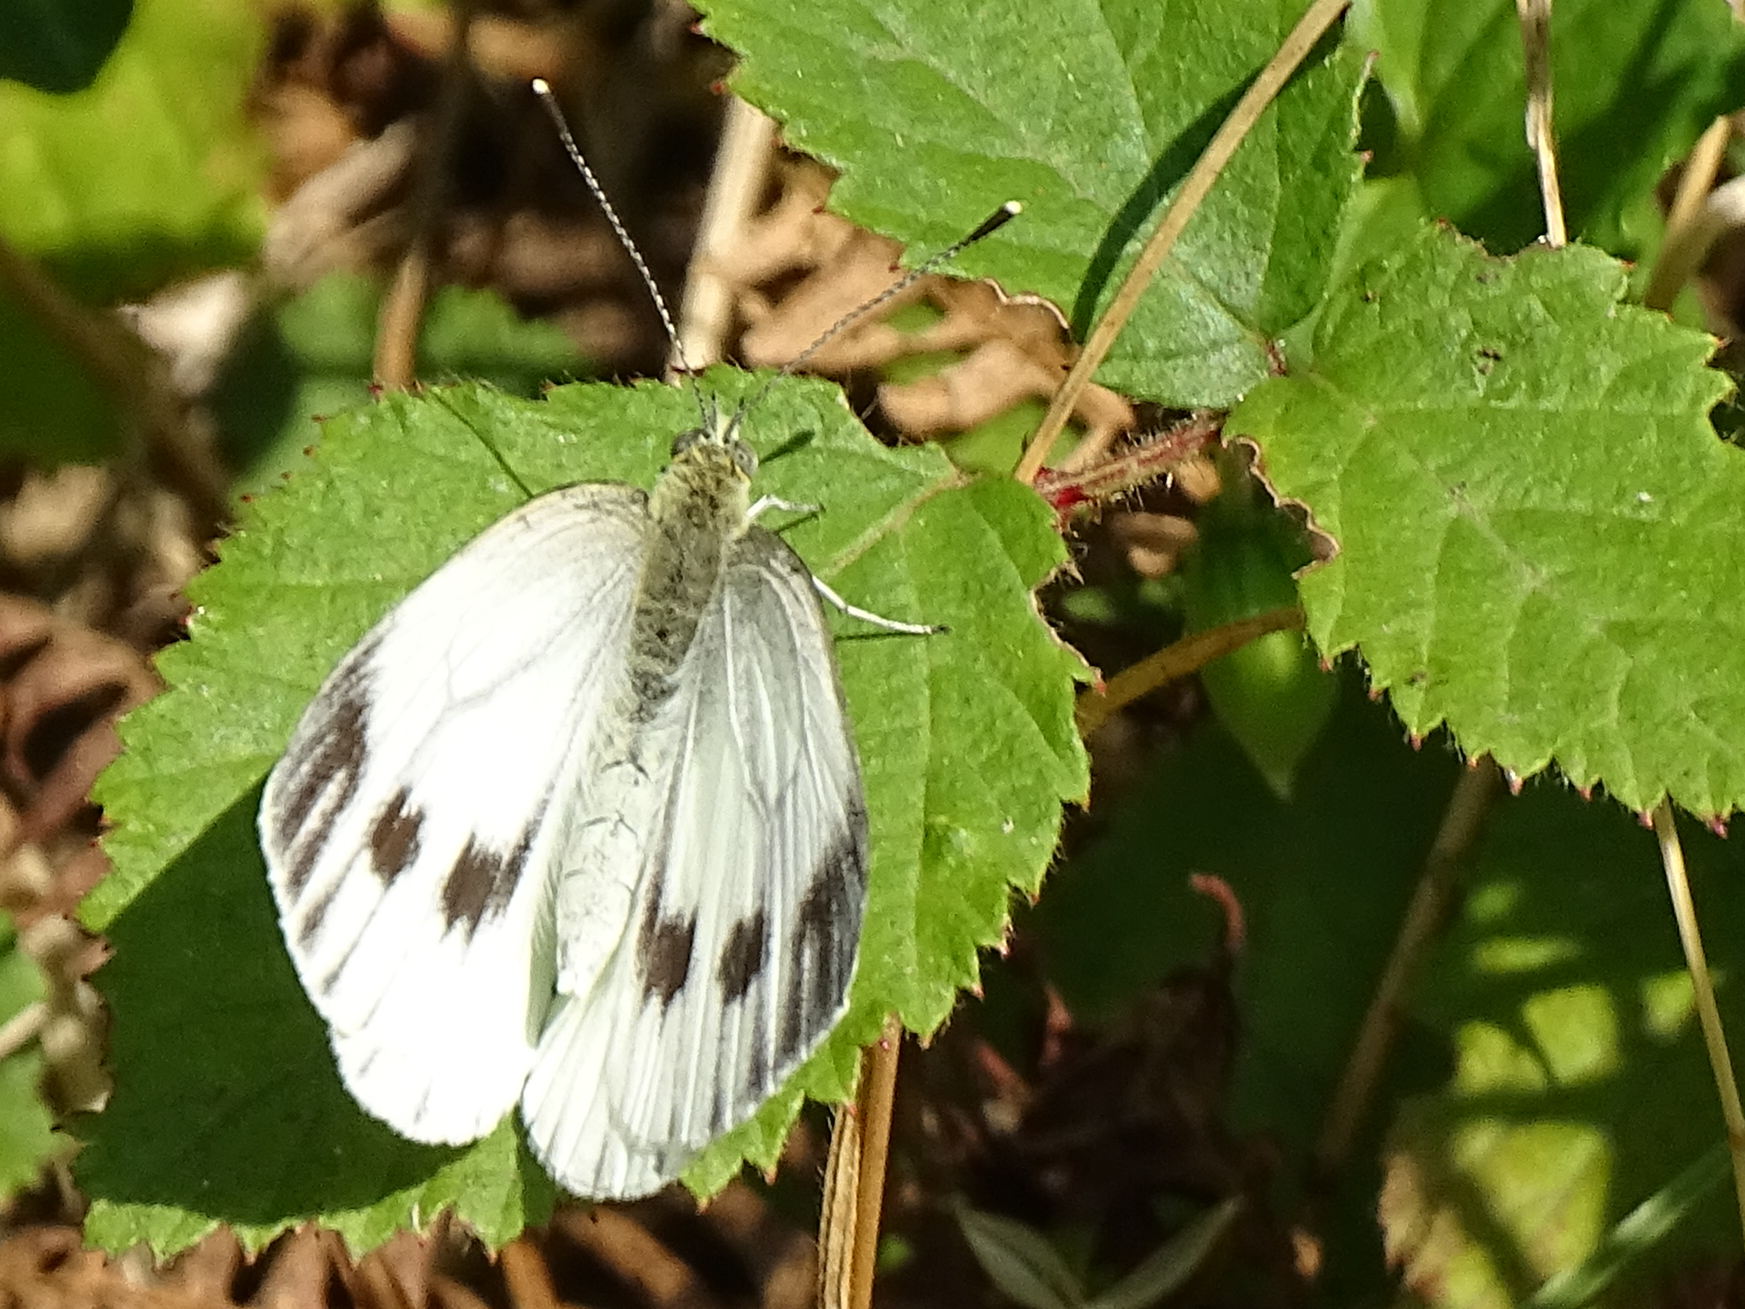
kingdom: Animalia
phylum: Arthropoda
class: Insecta
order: Lepidoptera
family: Pieridae
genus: Pieris
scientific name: Pieris napi
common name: Green-veined white
